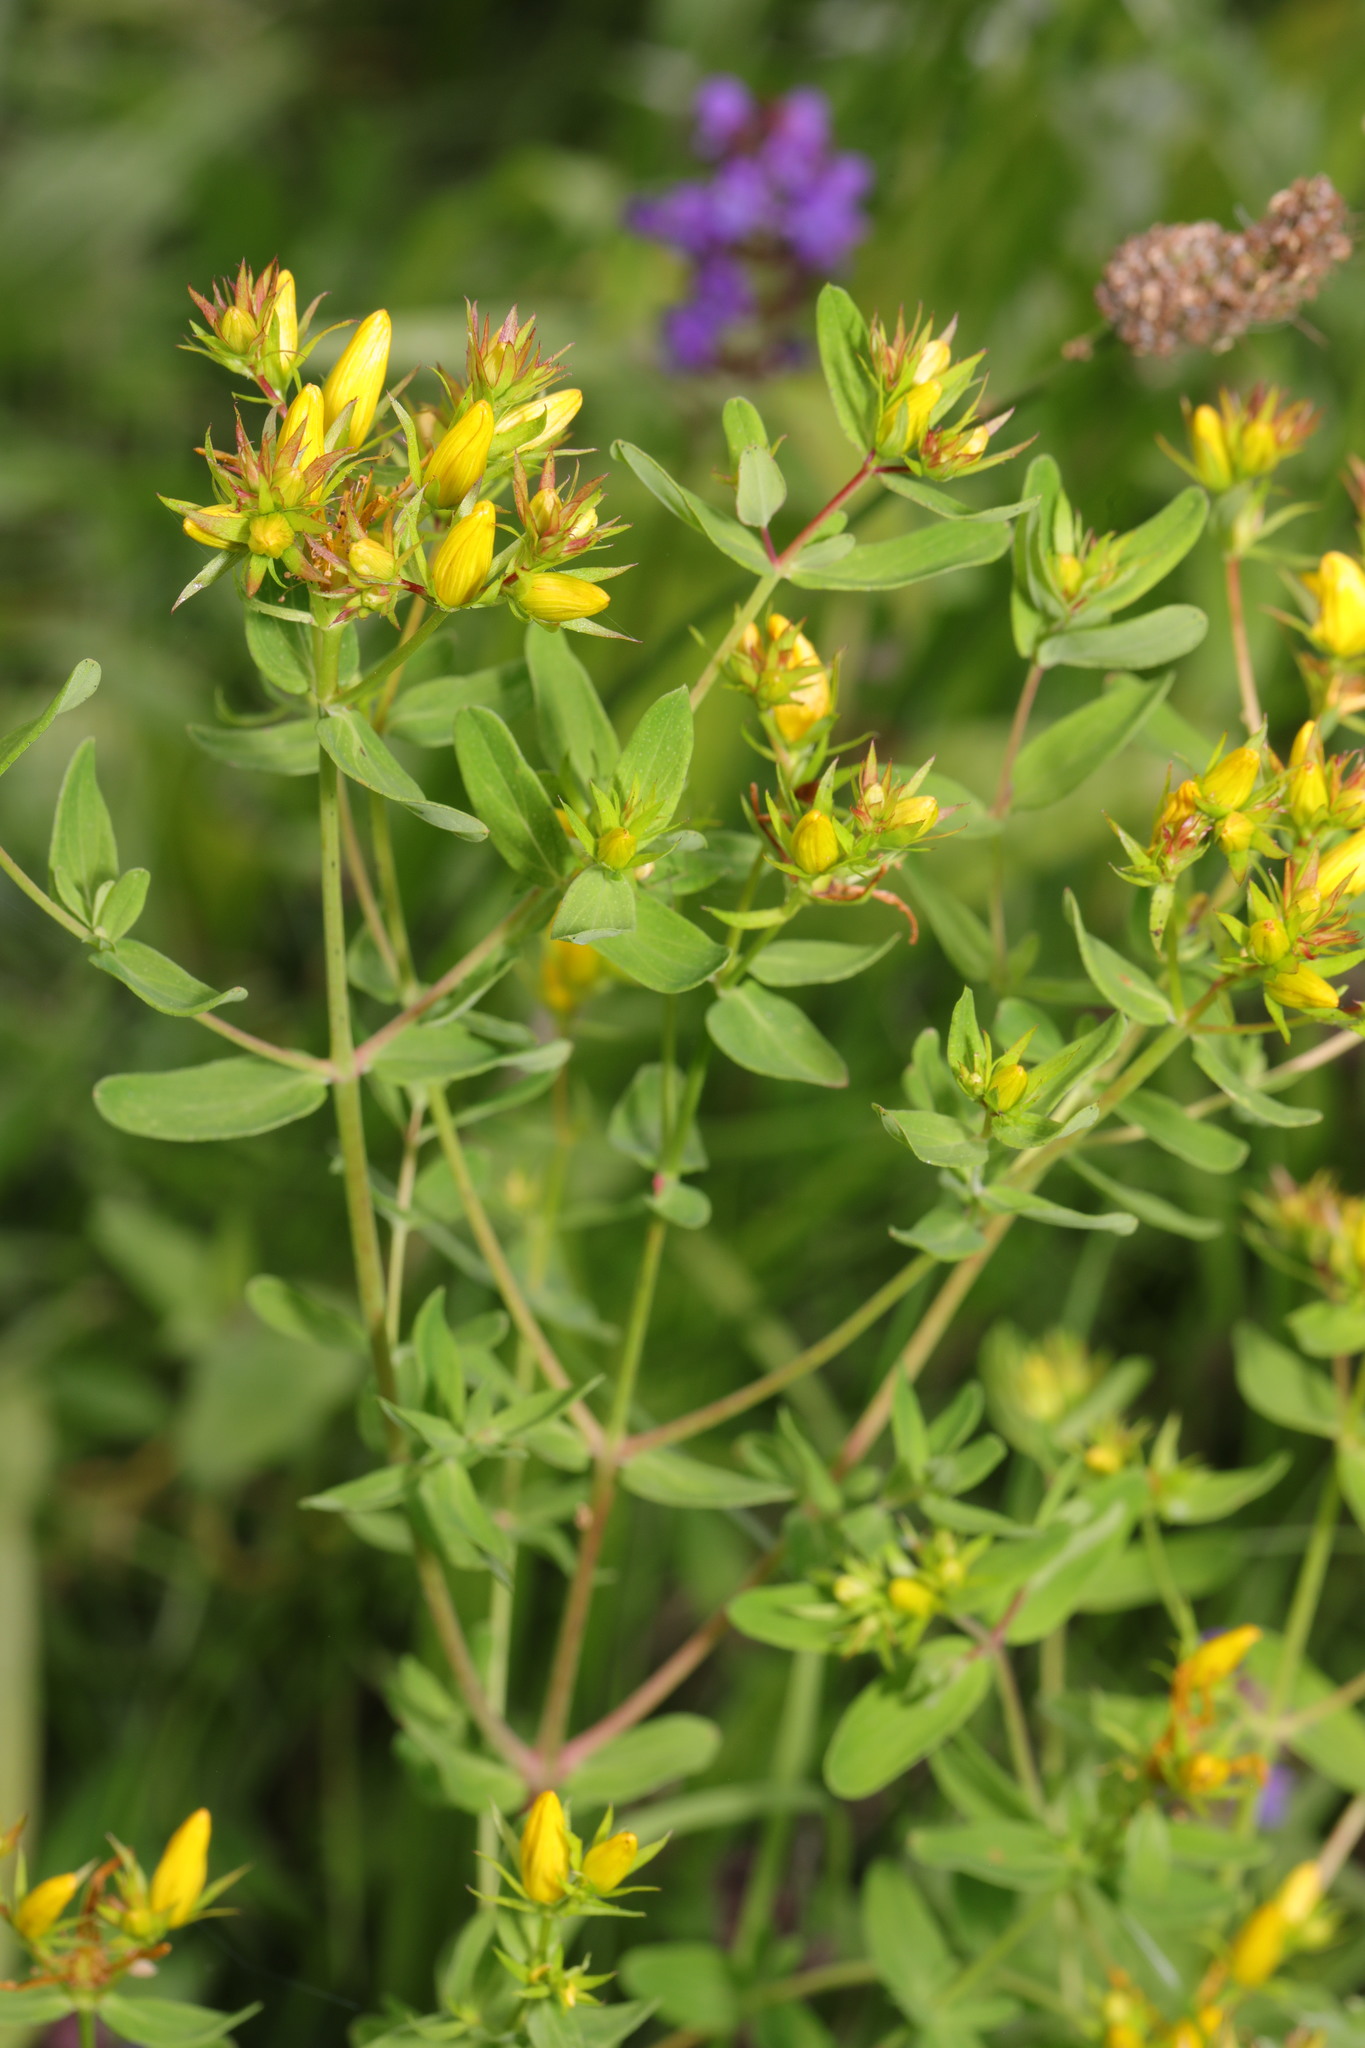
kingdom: Plantae
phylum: Tracheophyta
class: Magnoliopsida
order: Malpighiales
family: Hypericaceae
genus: Hypericum
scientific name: Hypericum perforatum
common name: Common st. johnswort
